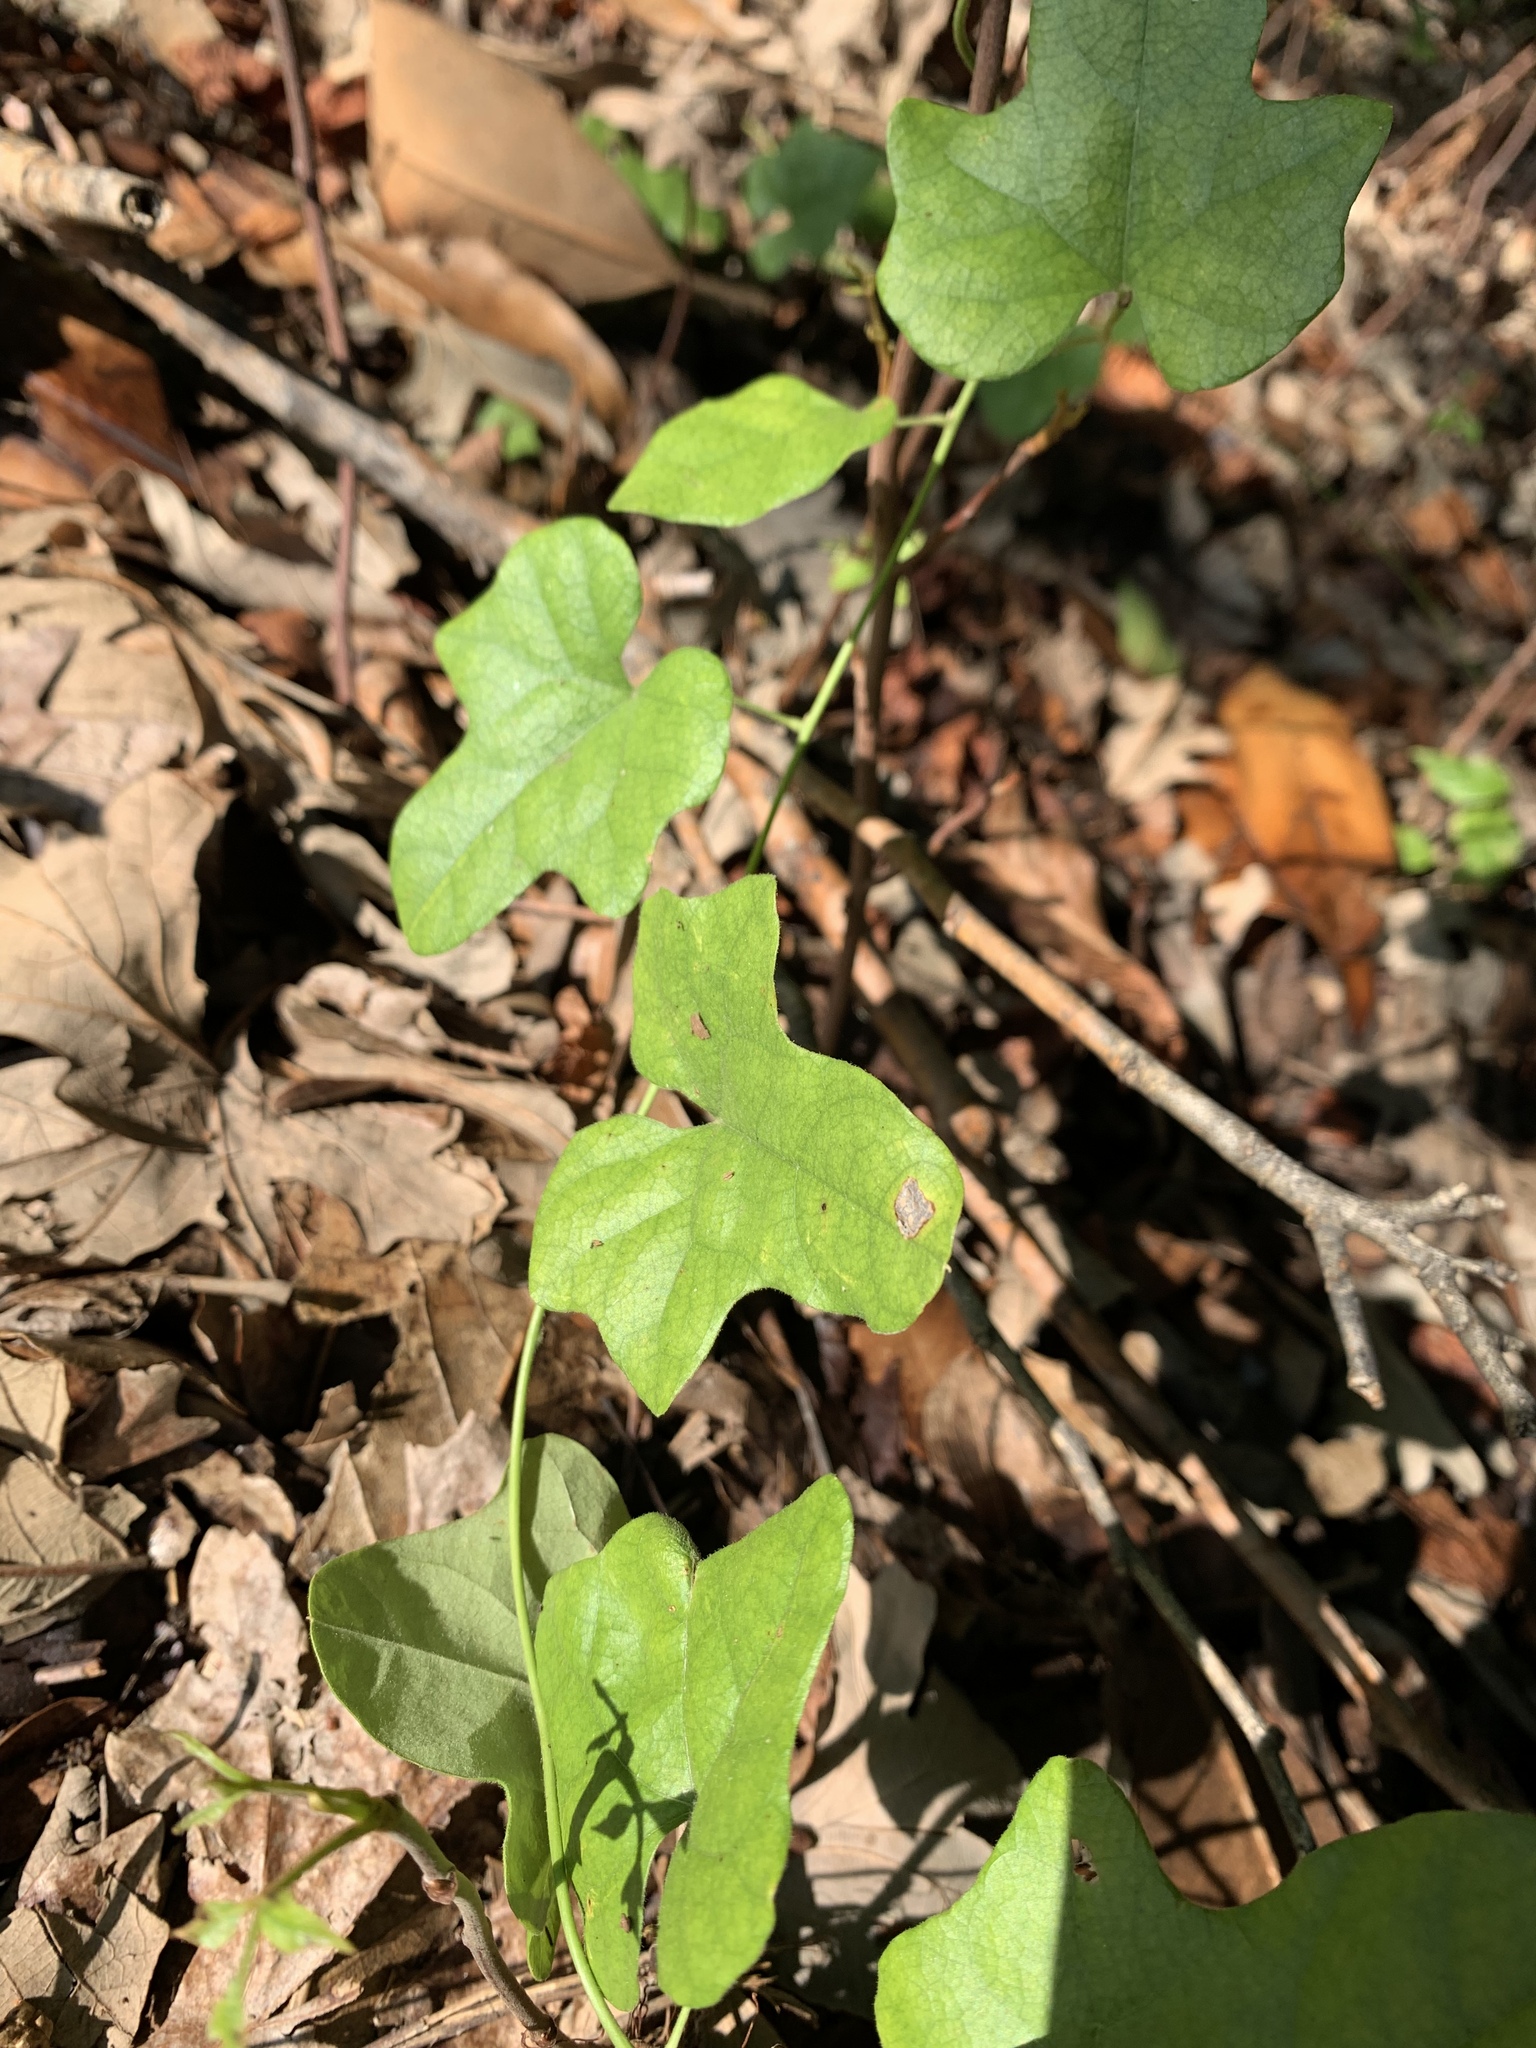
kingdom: Plantae
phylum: Tracheophyta
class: Magnoliopsida
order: Ranunculales
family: Menispermaceae
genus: Cocculus
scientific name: Cocculus carolinus
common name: Carolina moonseed
